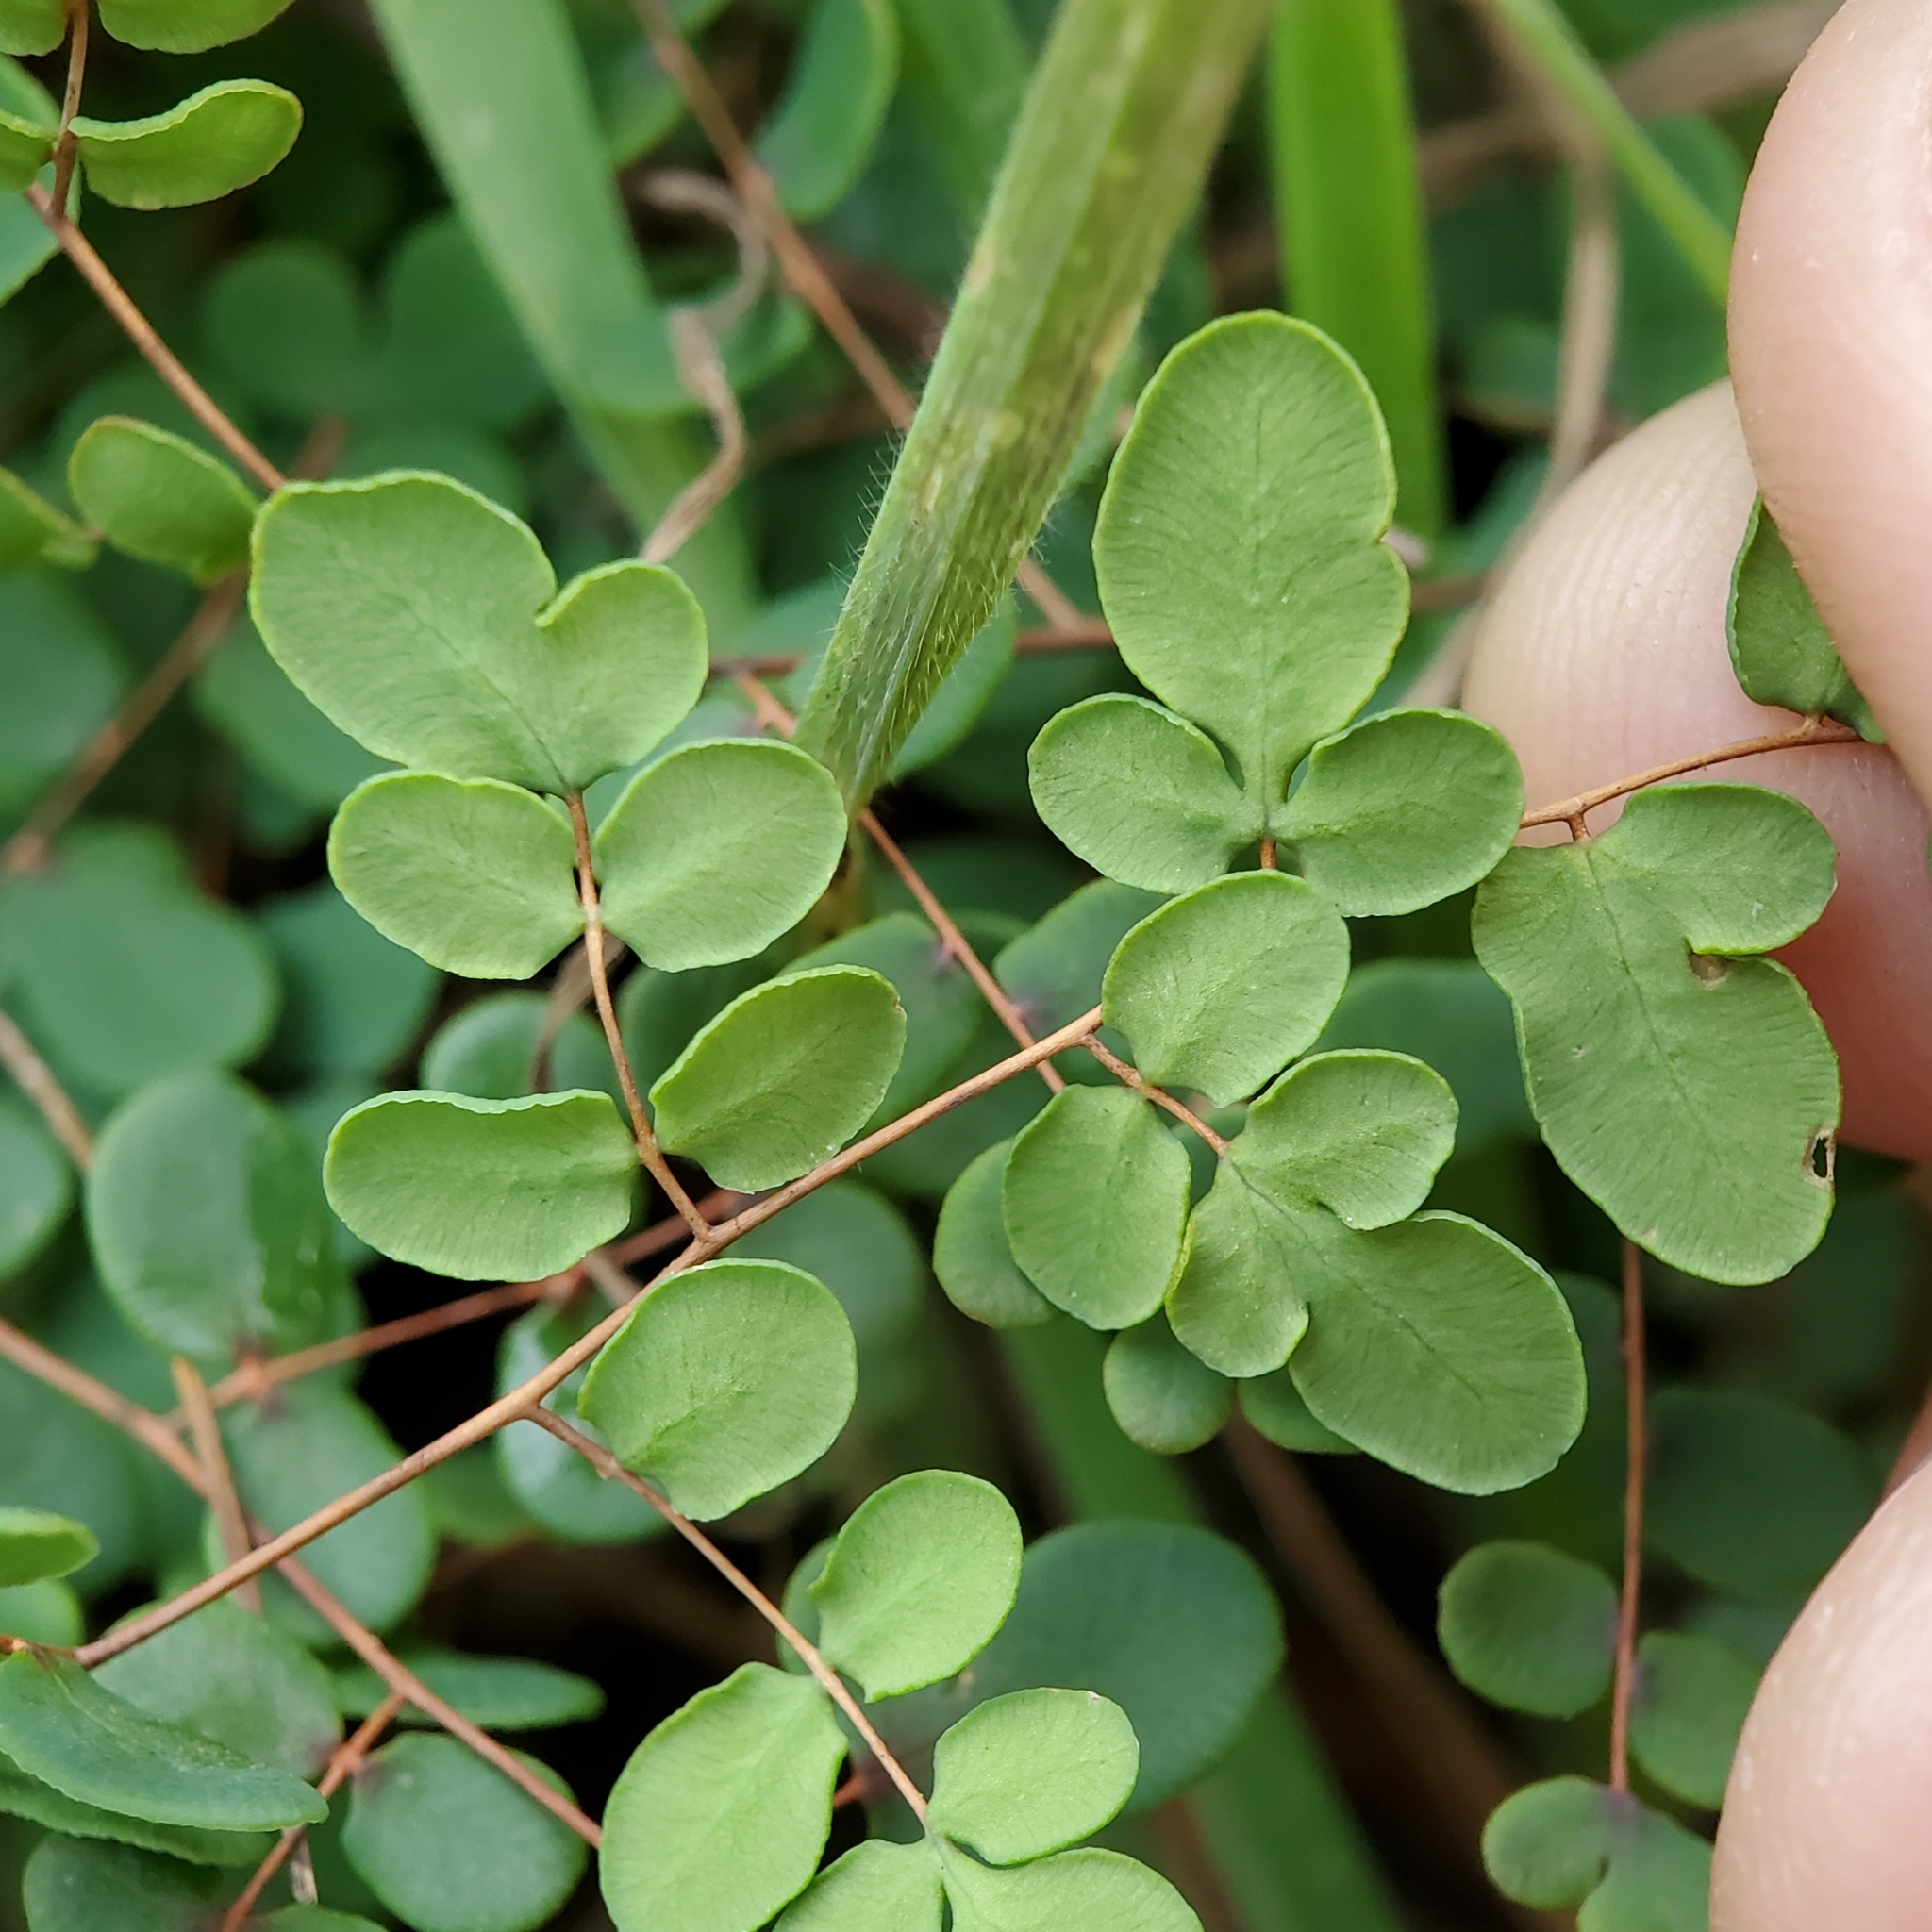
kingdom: Plantae
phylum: Tracheophyta
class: Polypodiopsida
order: Polypodiales
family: Pteridaceae
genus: Pellaea
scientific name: Pellaea andromedifolia
